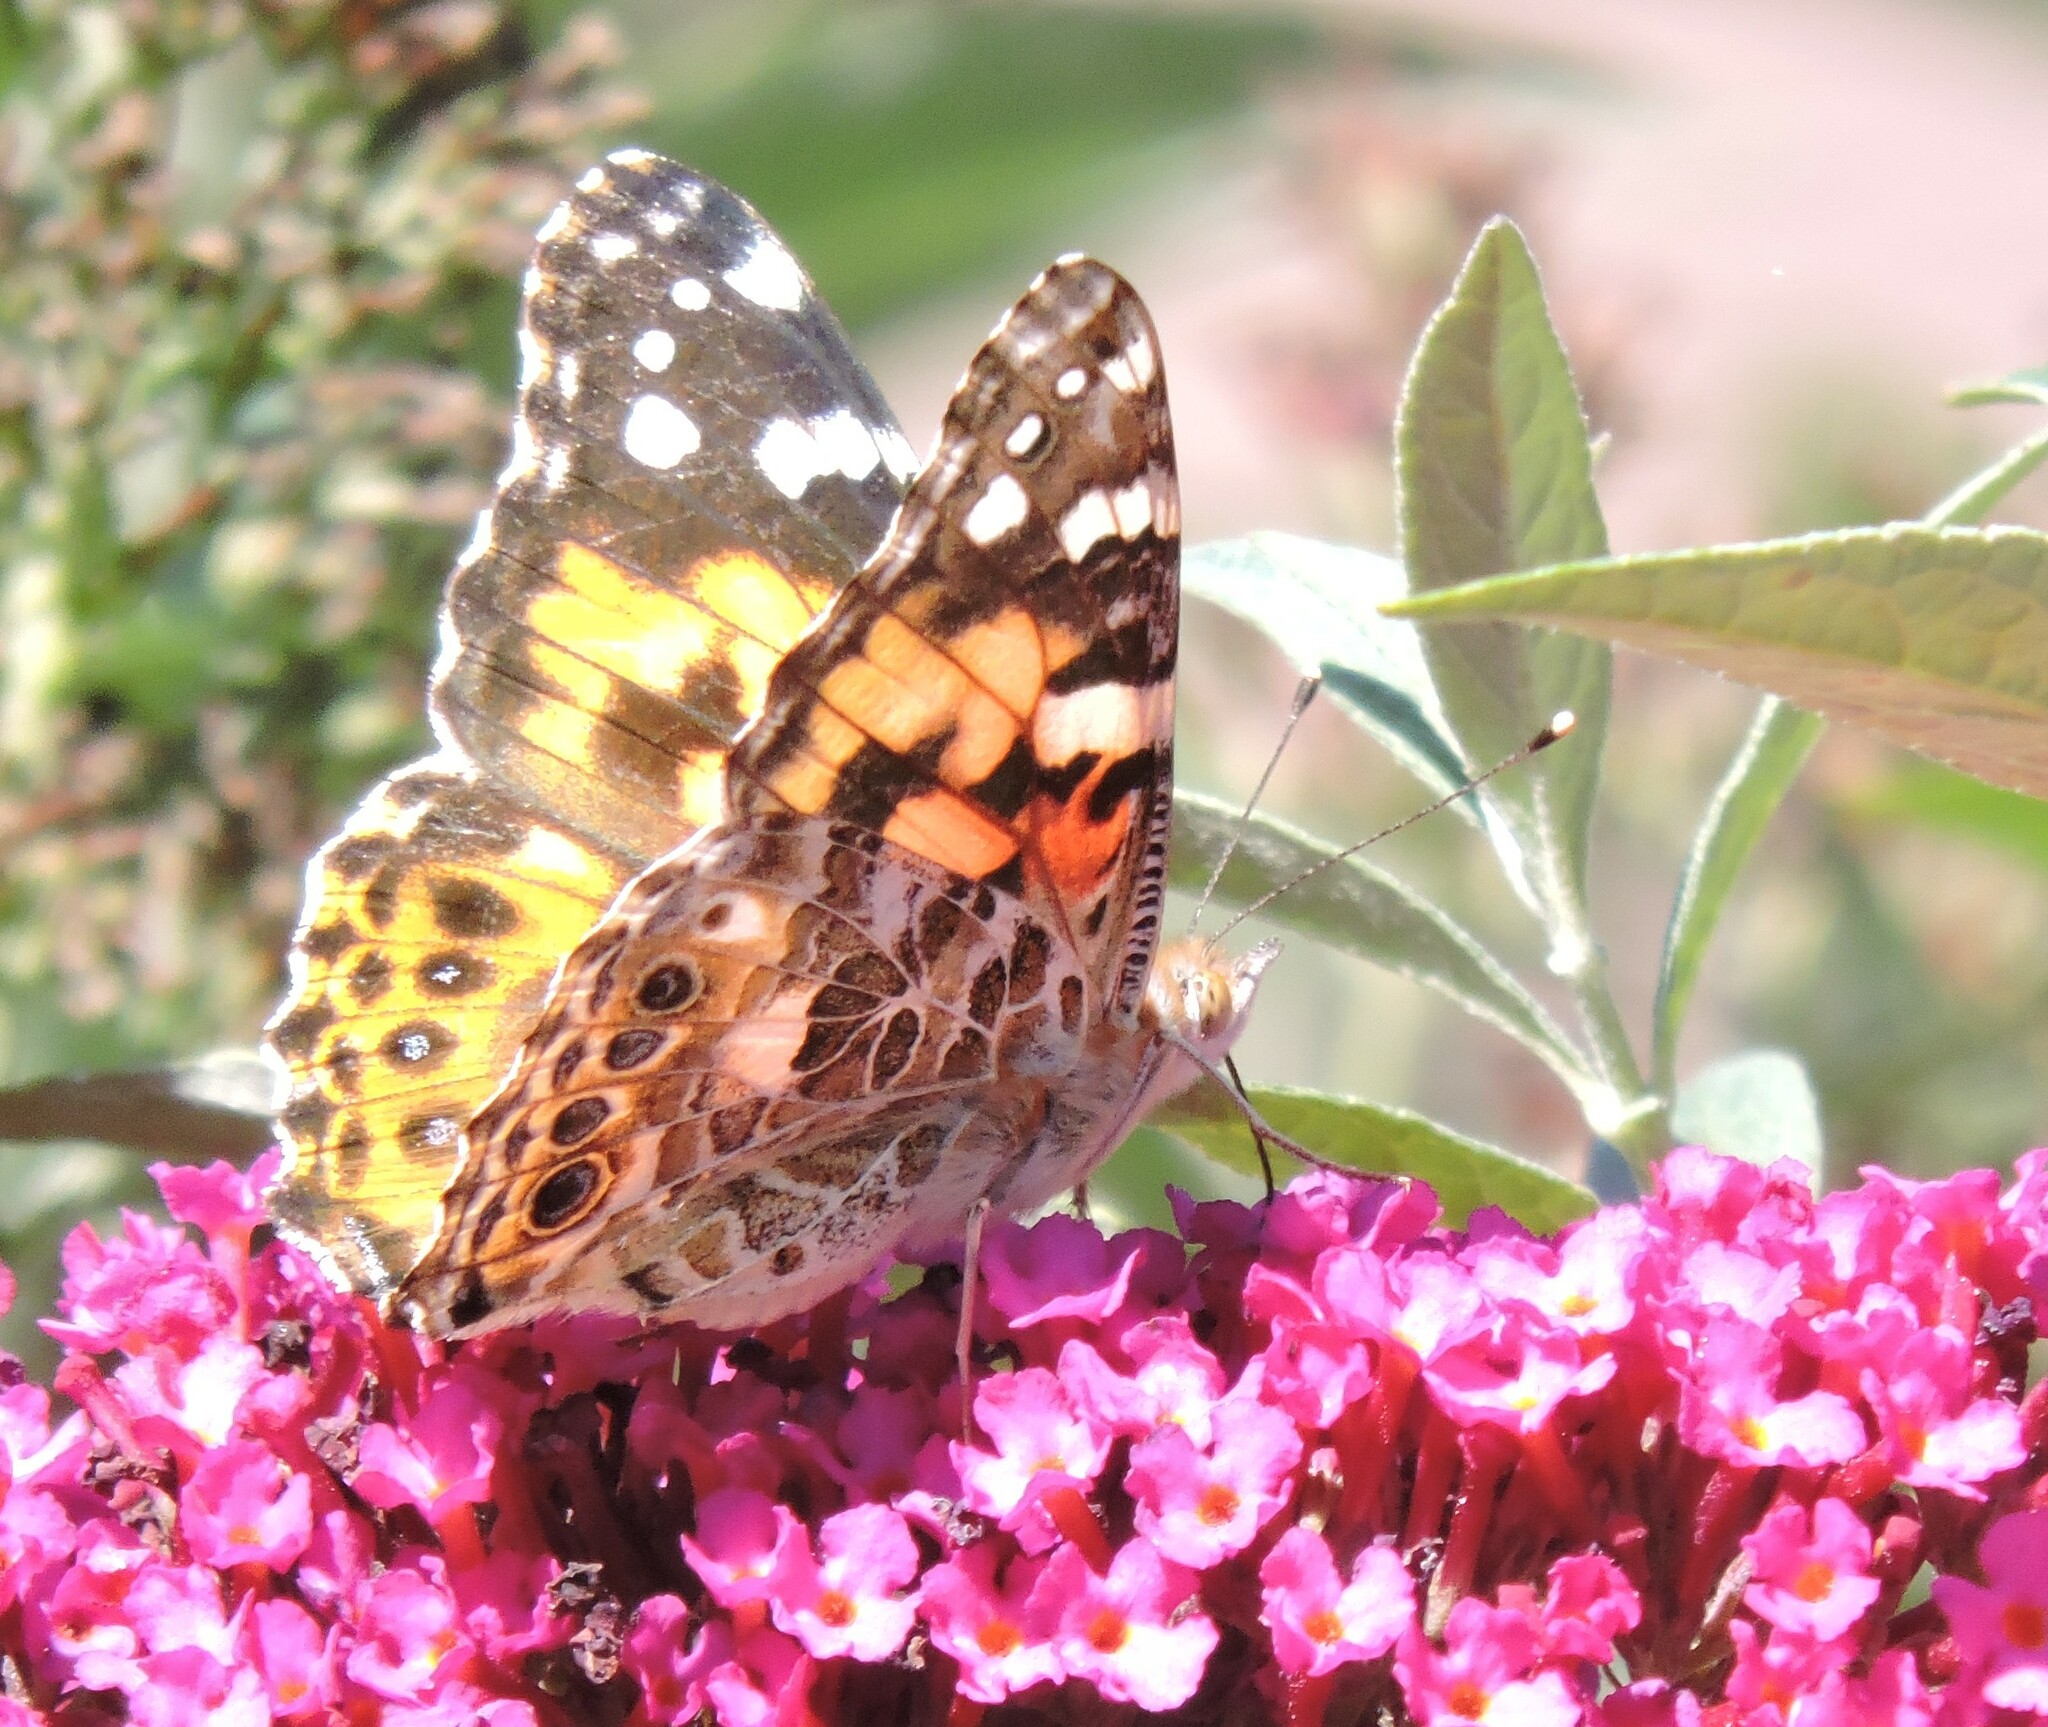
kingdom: Animalia
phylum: Arthropoda
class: Insecta
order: Lepidoptera
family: Nymphalidae
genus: Vanessa
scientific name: Vanessa cardui
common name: Painted lady
